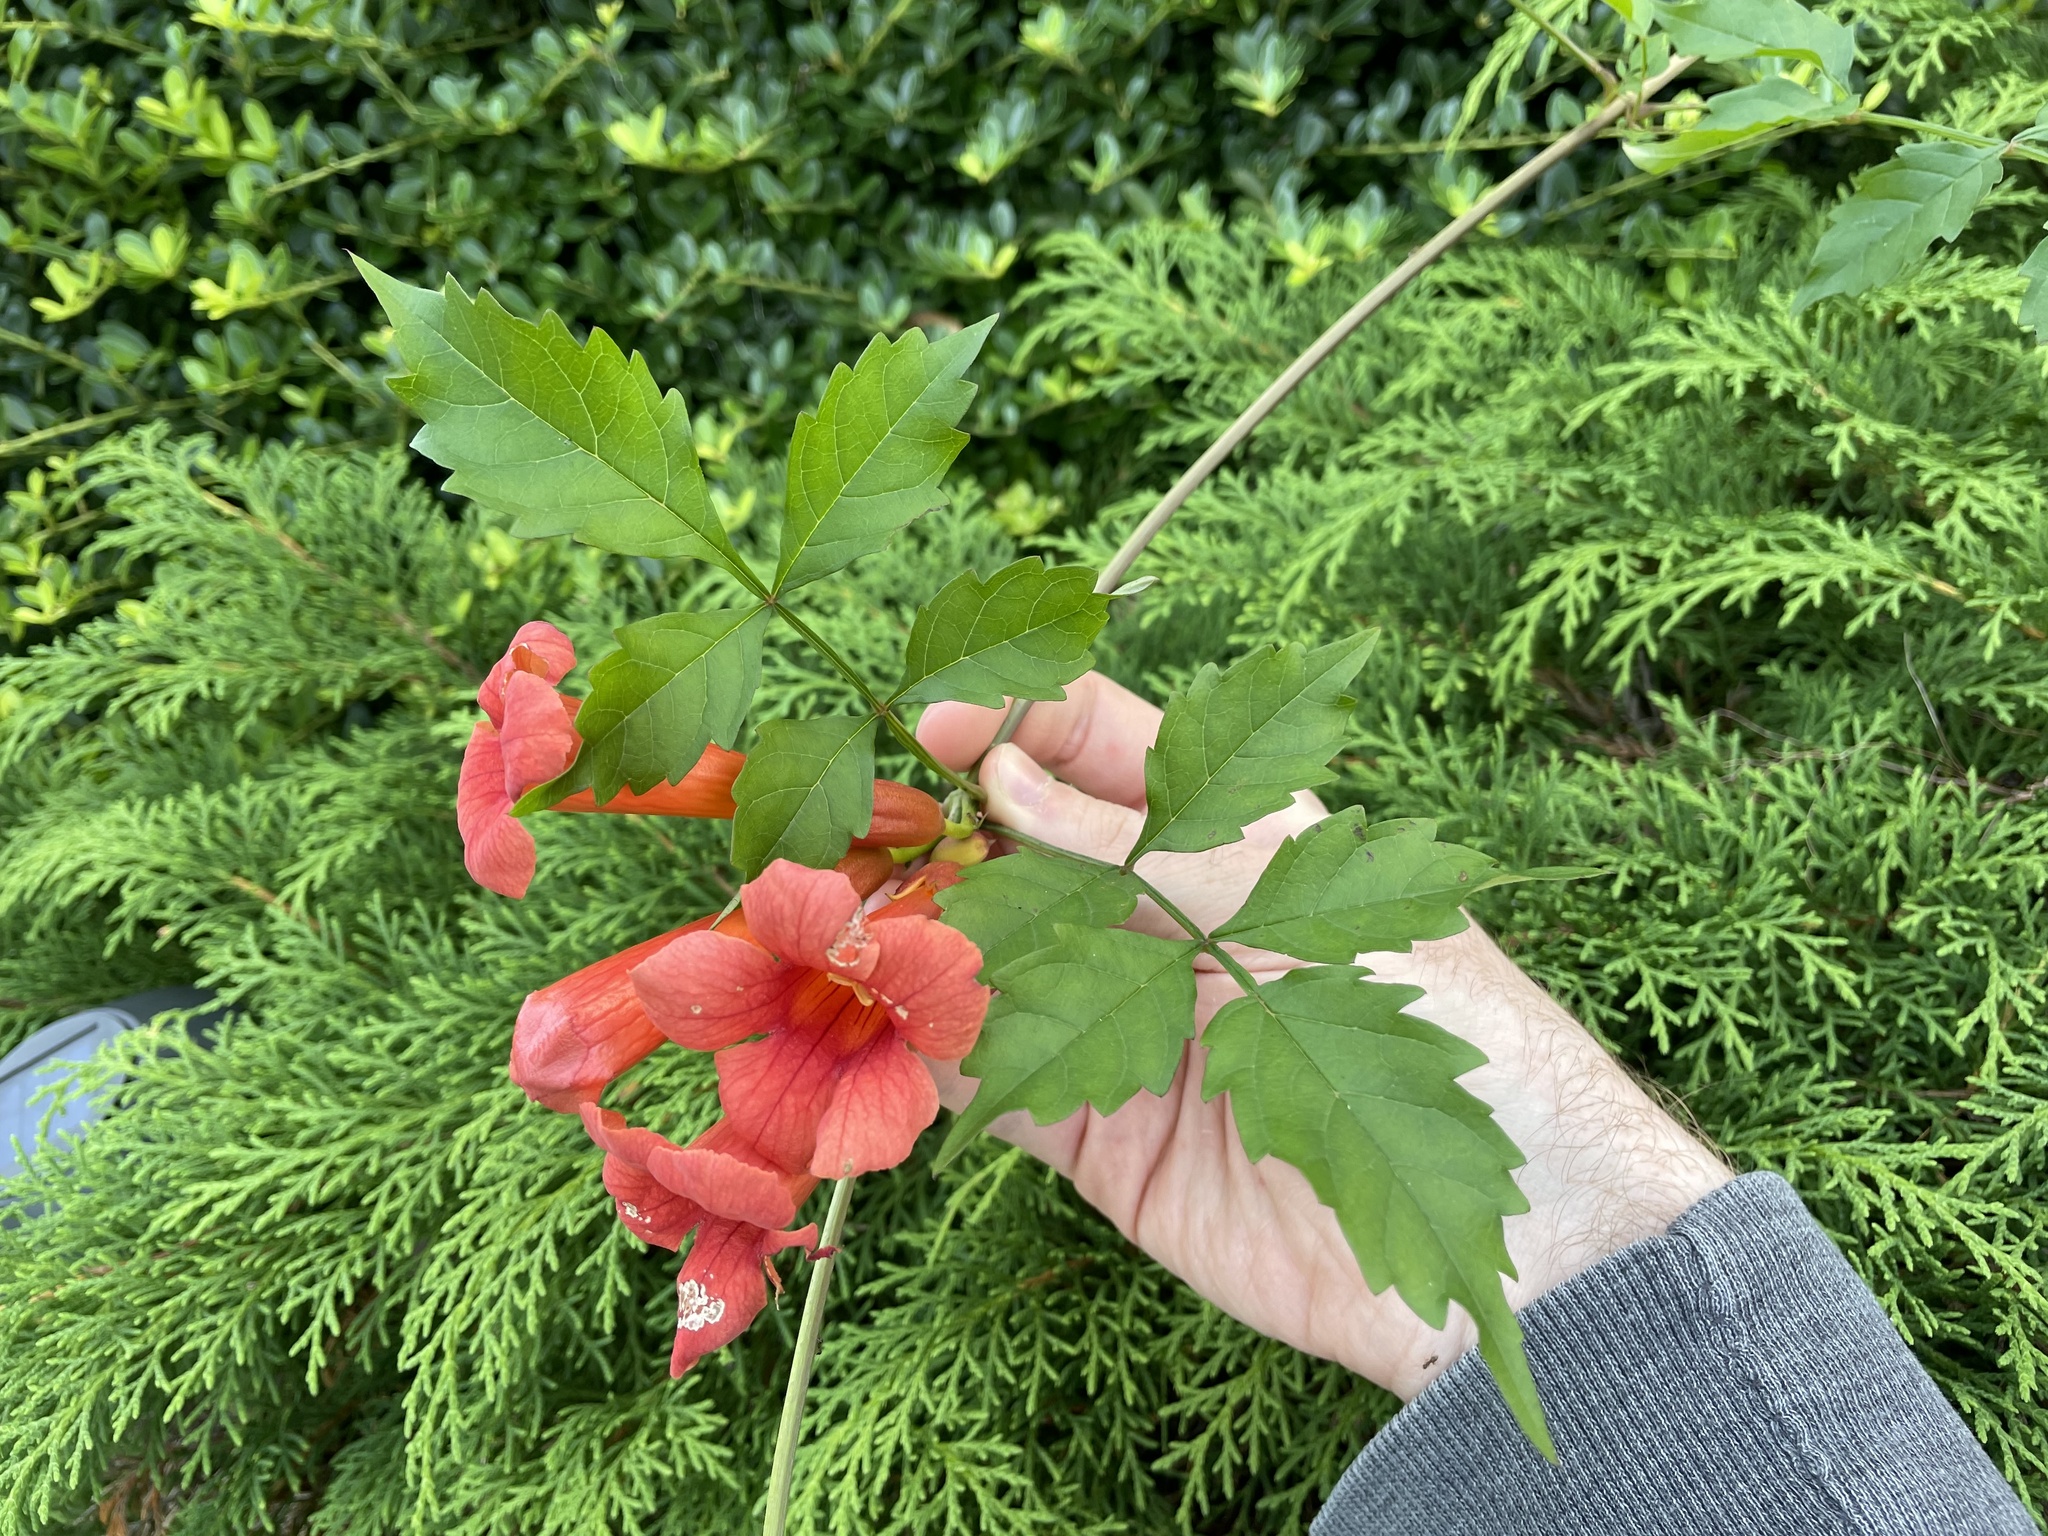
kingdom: Plantae
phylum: Tracheophyta
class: Magnoliopsida
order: Lamiales
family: Bignoniaceae
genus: Campsis
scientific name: Campsis radicans
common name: Trumpet-creeper
